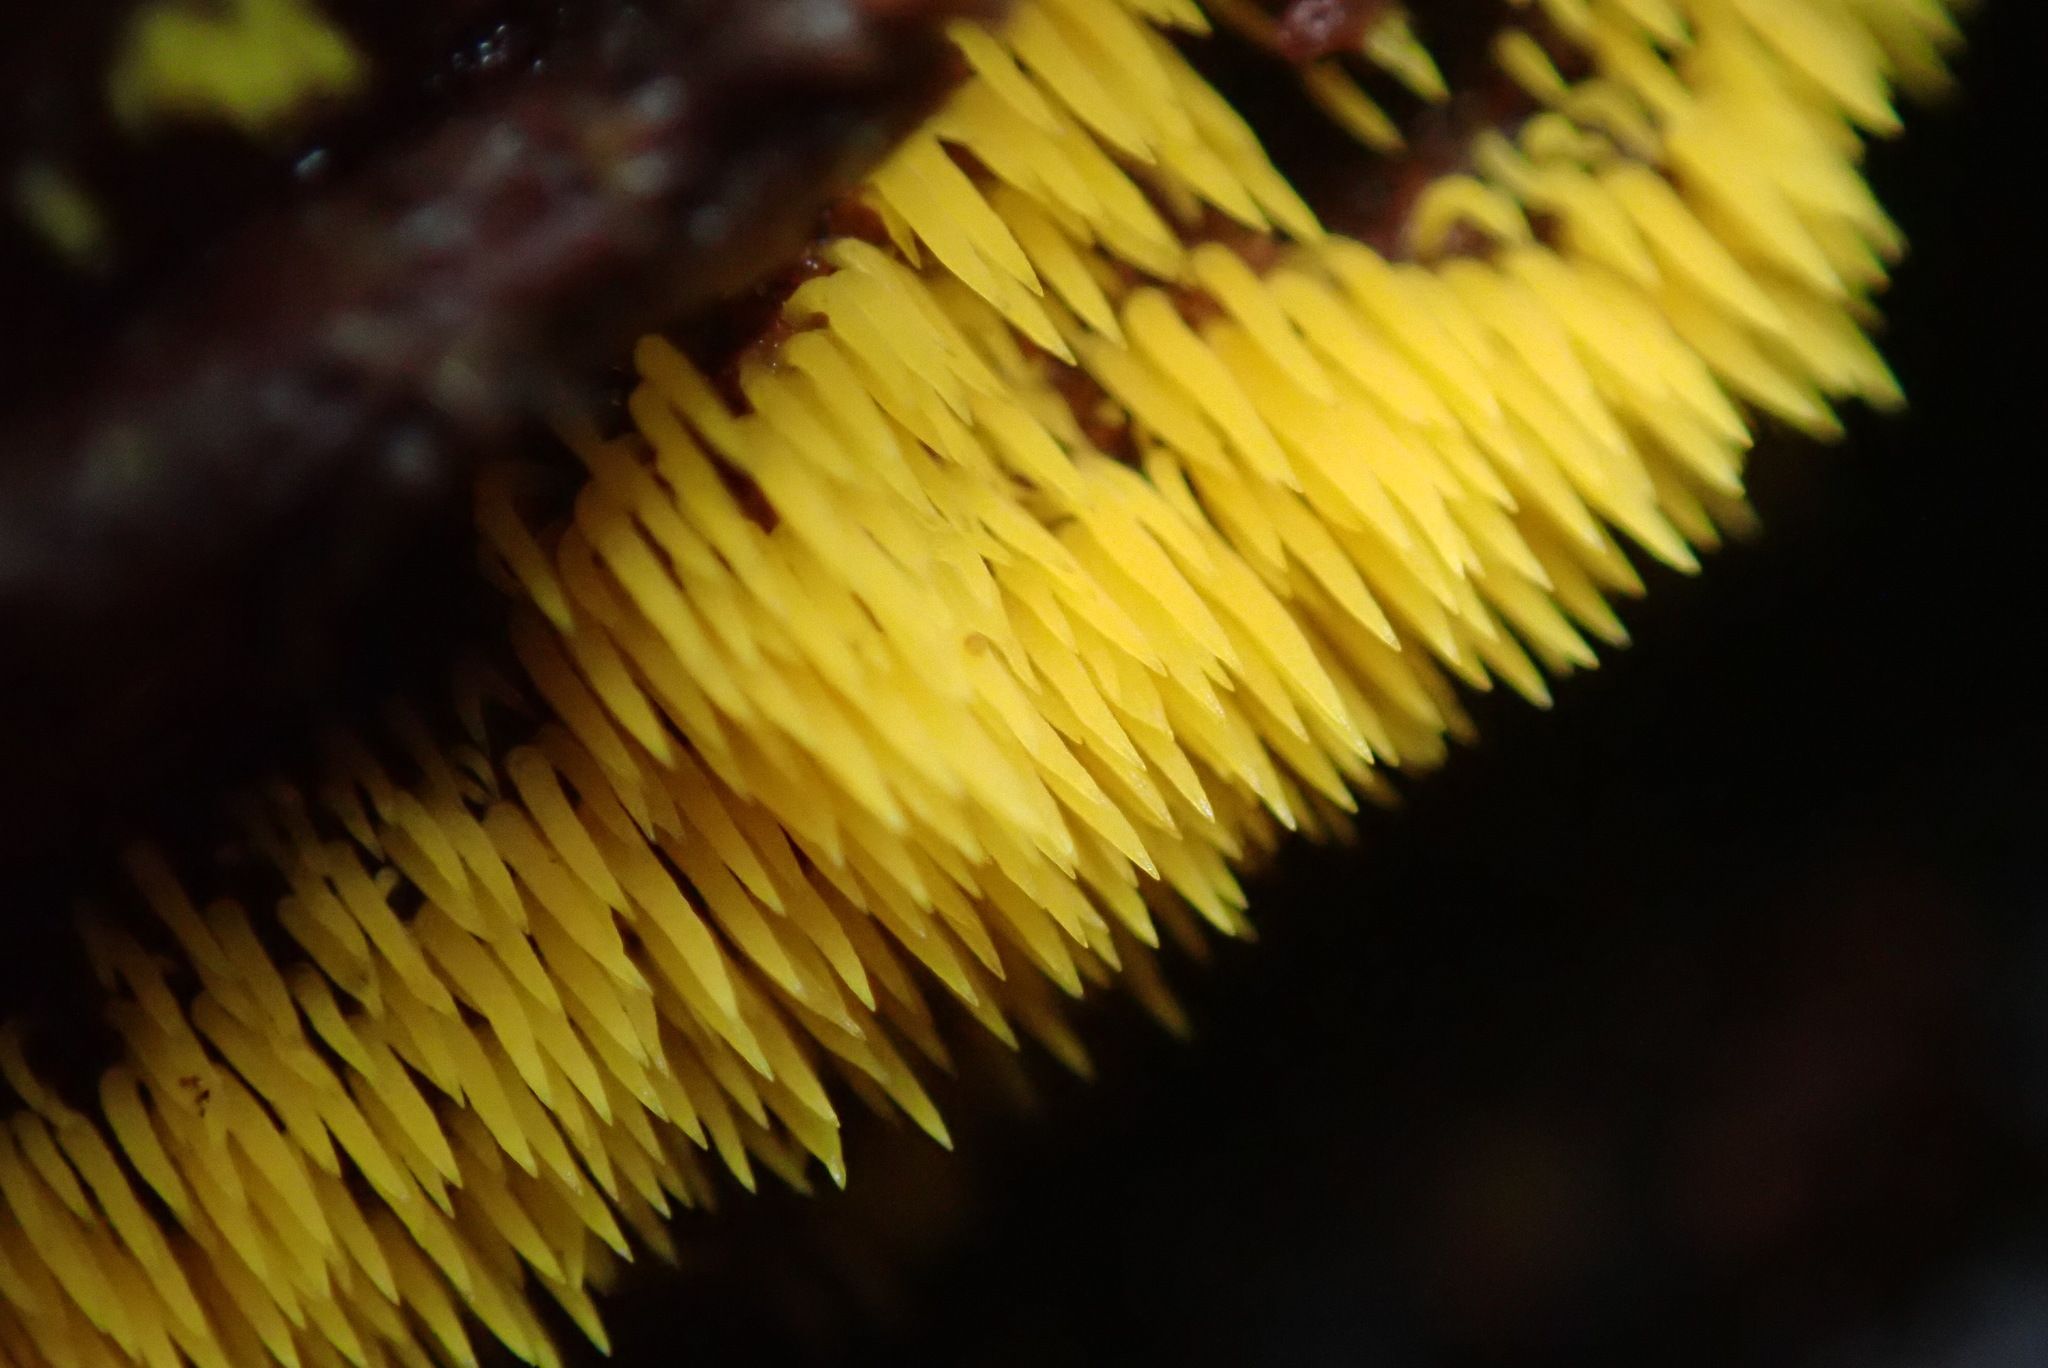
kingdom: Fungi
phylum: Basidiomycota
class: Agaricomycetes
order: Agaricales
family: Clavariaceae
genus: Mucronella
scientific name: Mucronella flava
